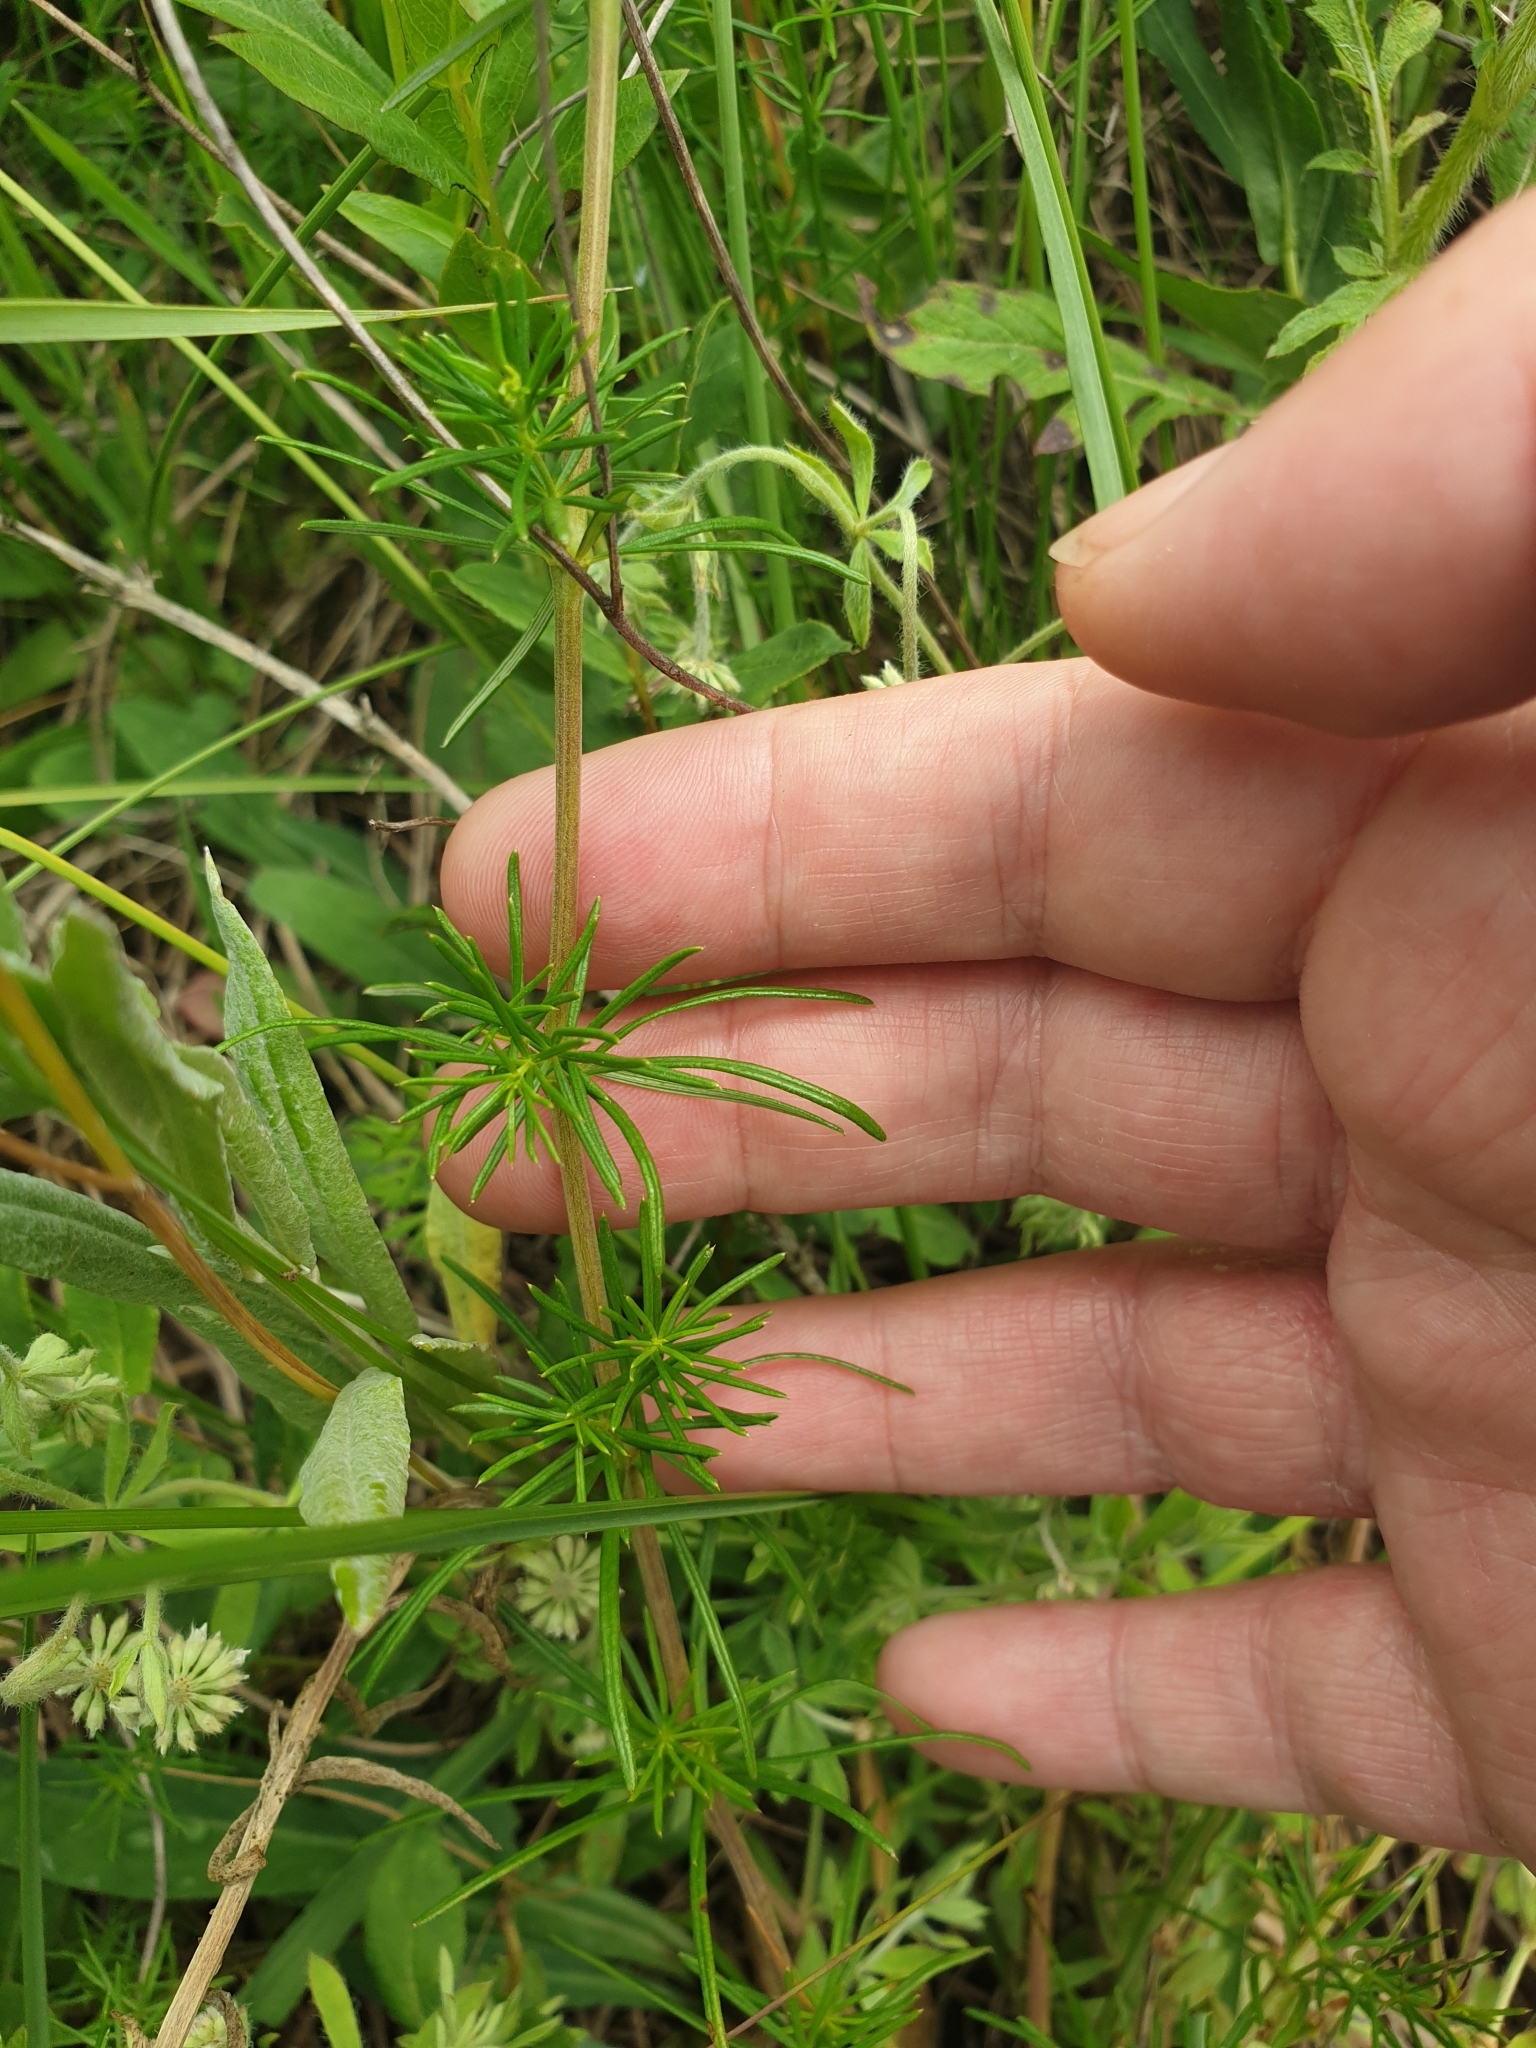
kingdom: Plantae
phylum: Tracheophyta
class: Magnoliopsida
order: Gentianales
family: Rubiaceae
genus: Galium
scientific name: Galium verum
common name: Lady's bedstraw
